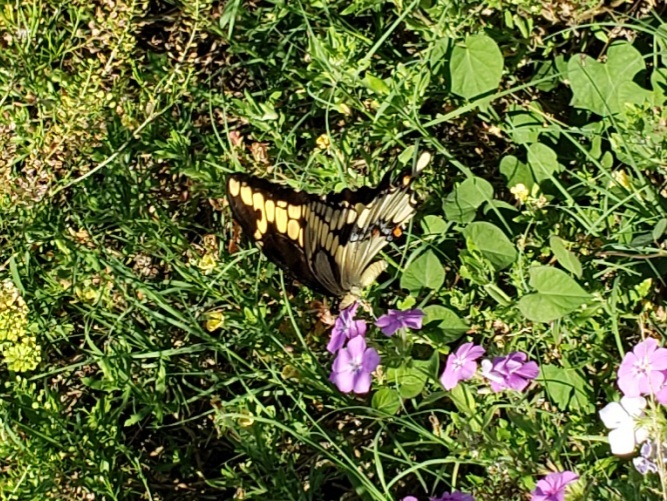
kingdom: Animalia
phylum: Arthropoda
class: Insecta
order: Lepidoptera
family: Papilionidae
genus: Papilio
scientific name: Papilio cresphontes
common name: Giant swallowtail
